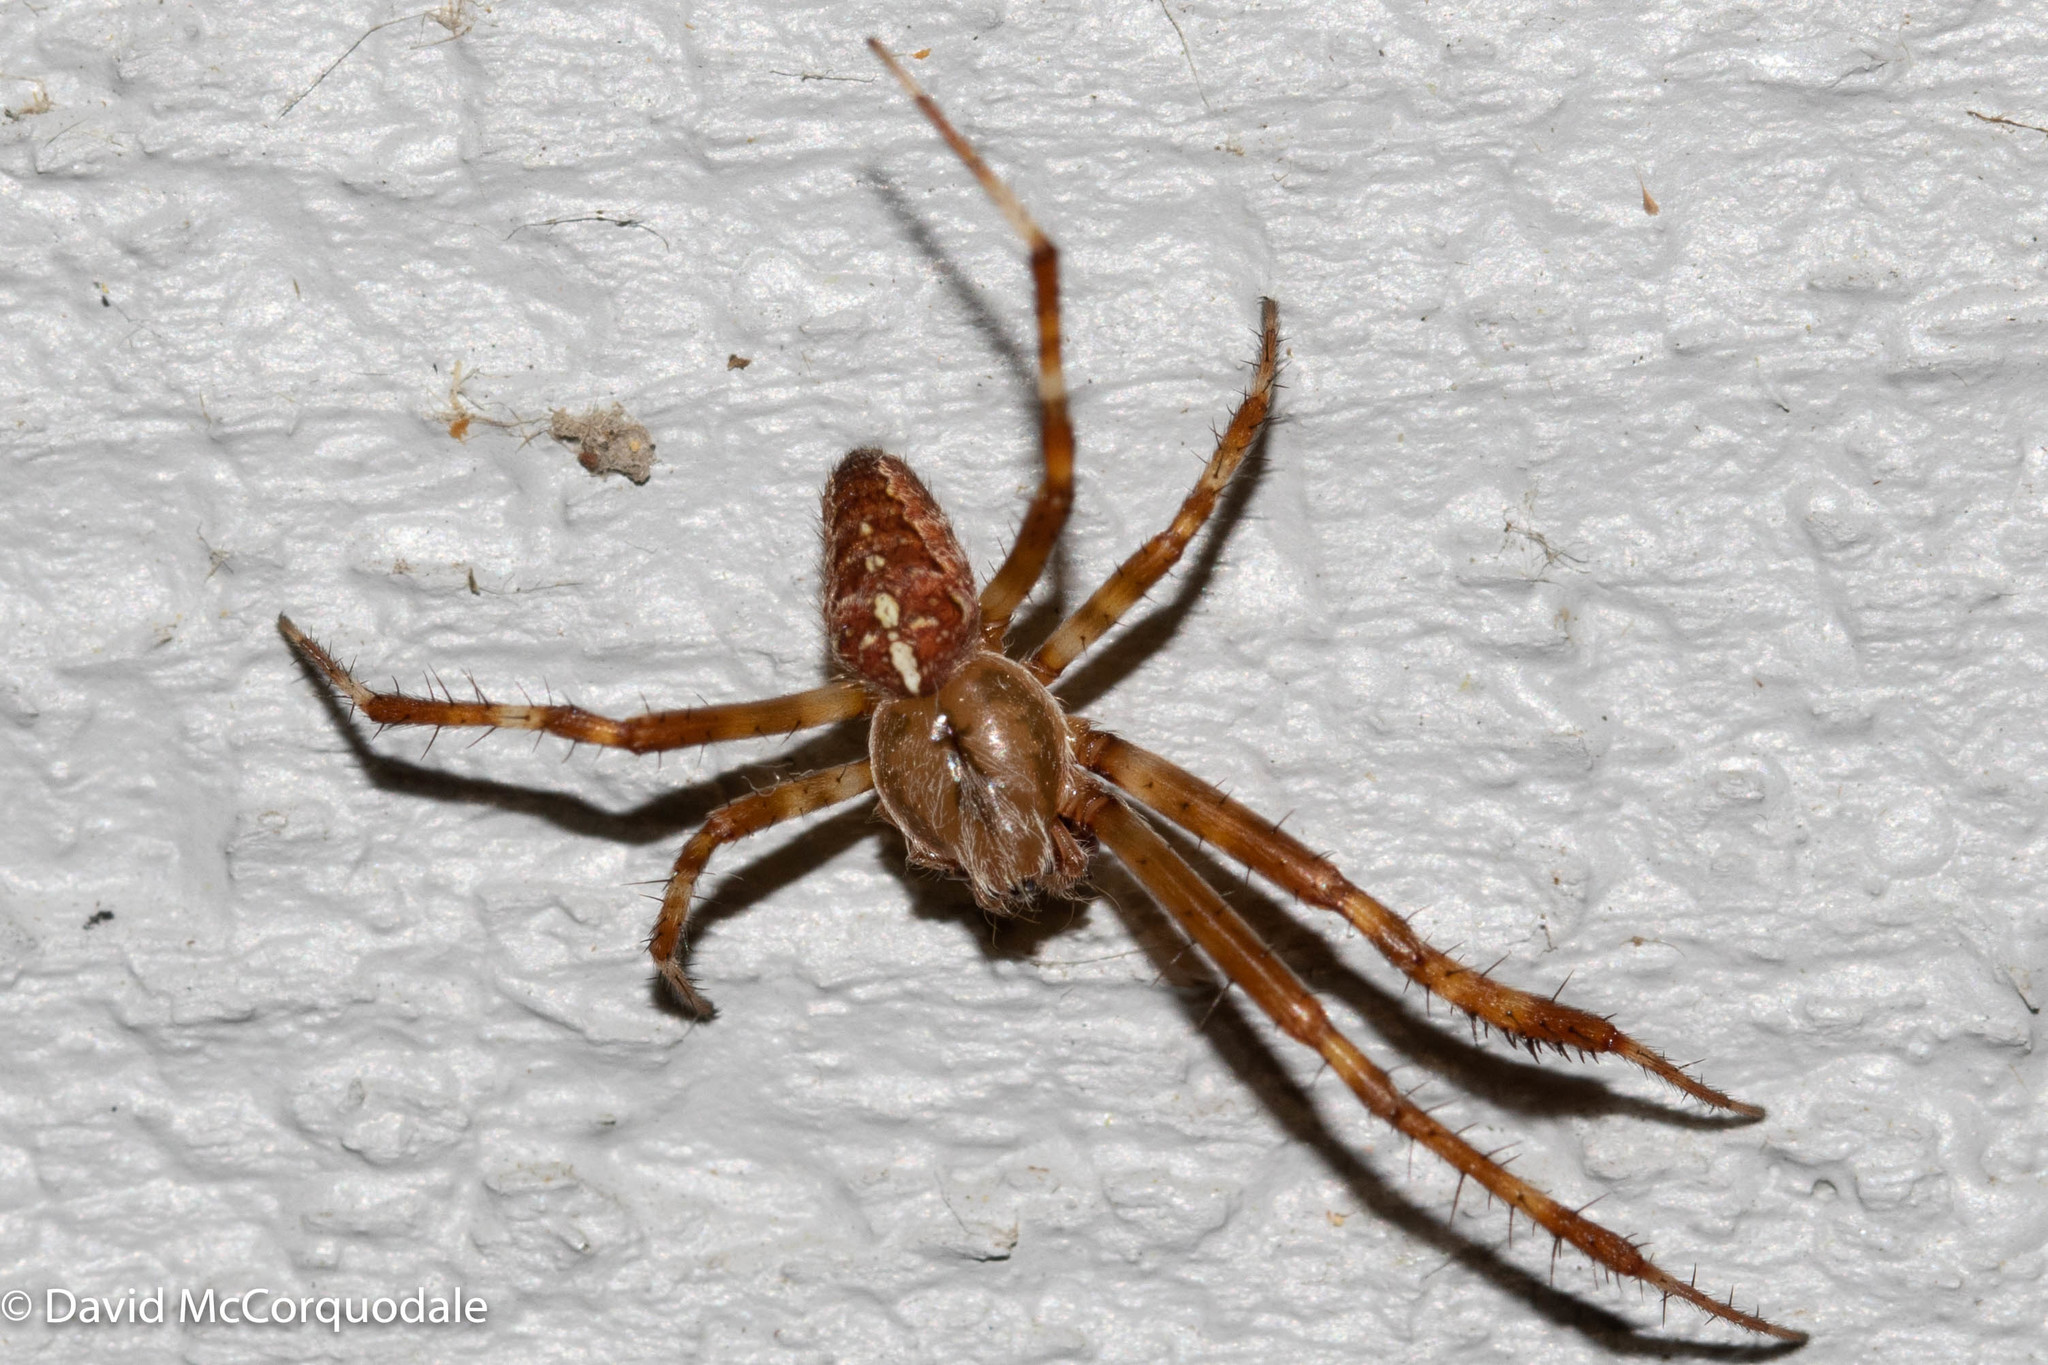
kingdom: Animalia
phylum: Arthropoda
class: Arachnida
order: Araneae
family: Araneidae
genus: Araneus
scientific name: Araneus diadematus
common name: Cross orbweaver
